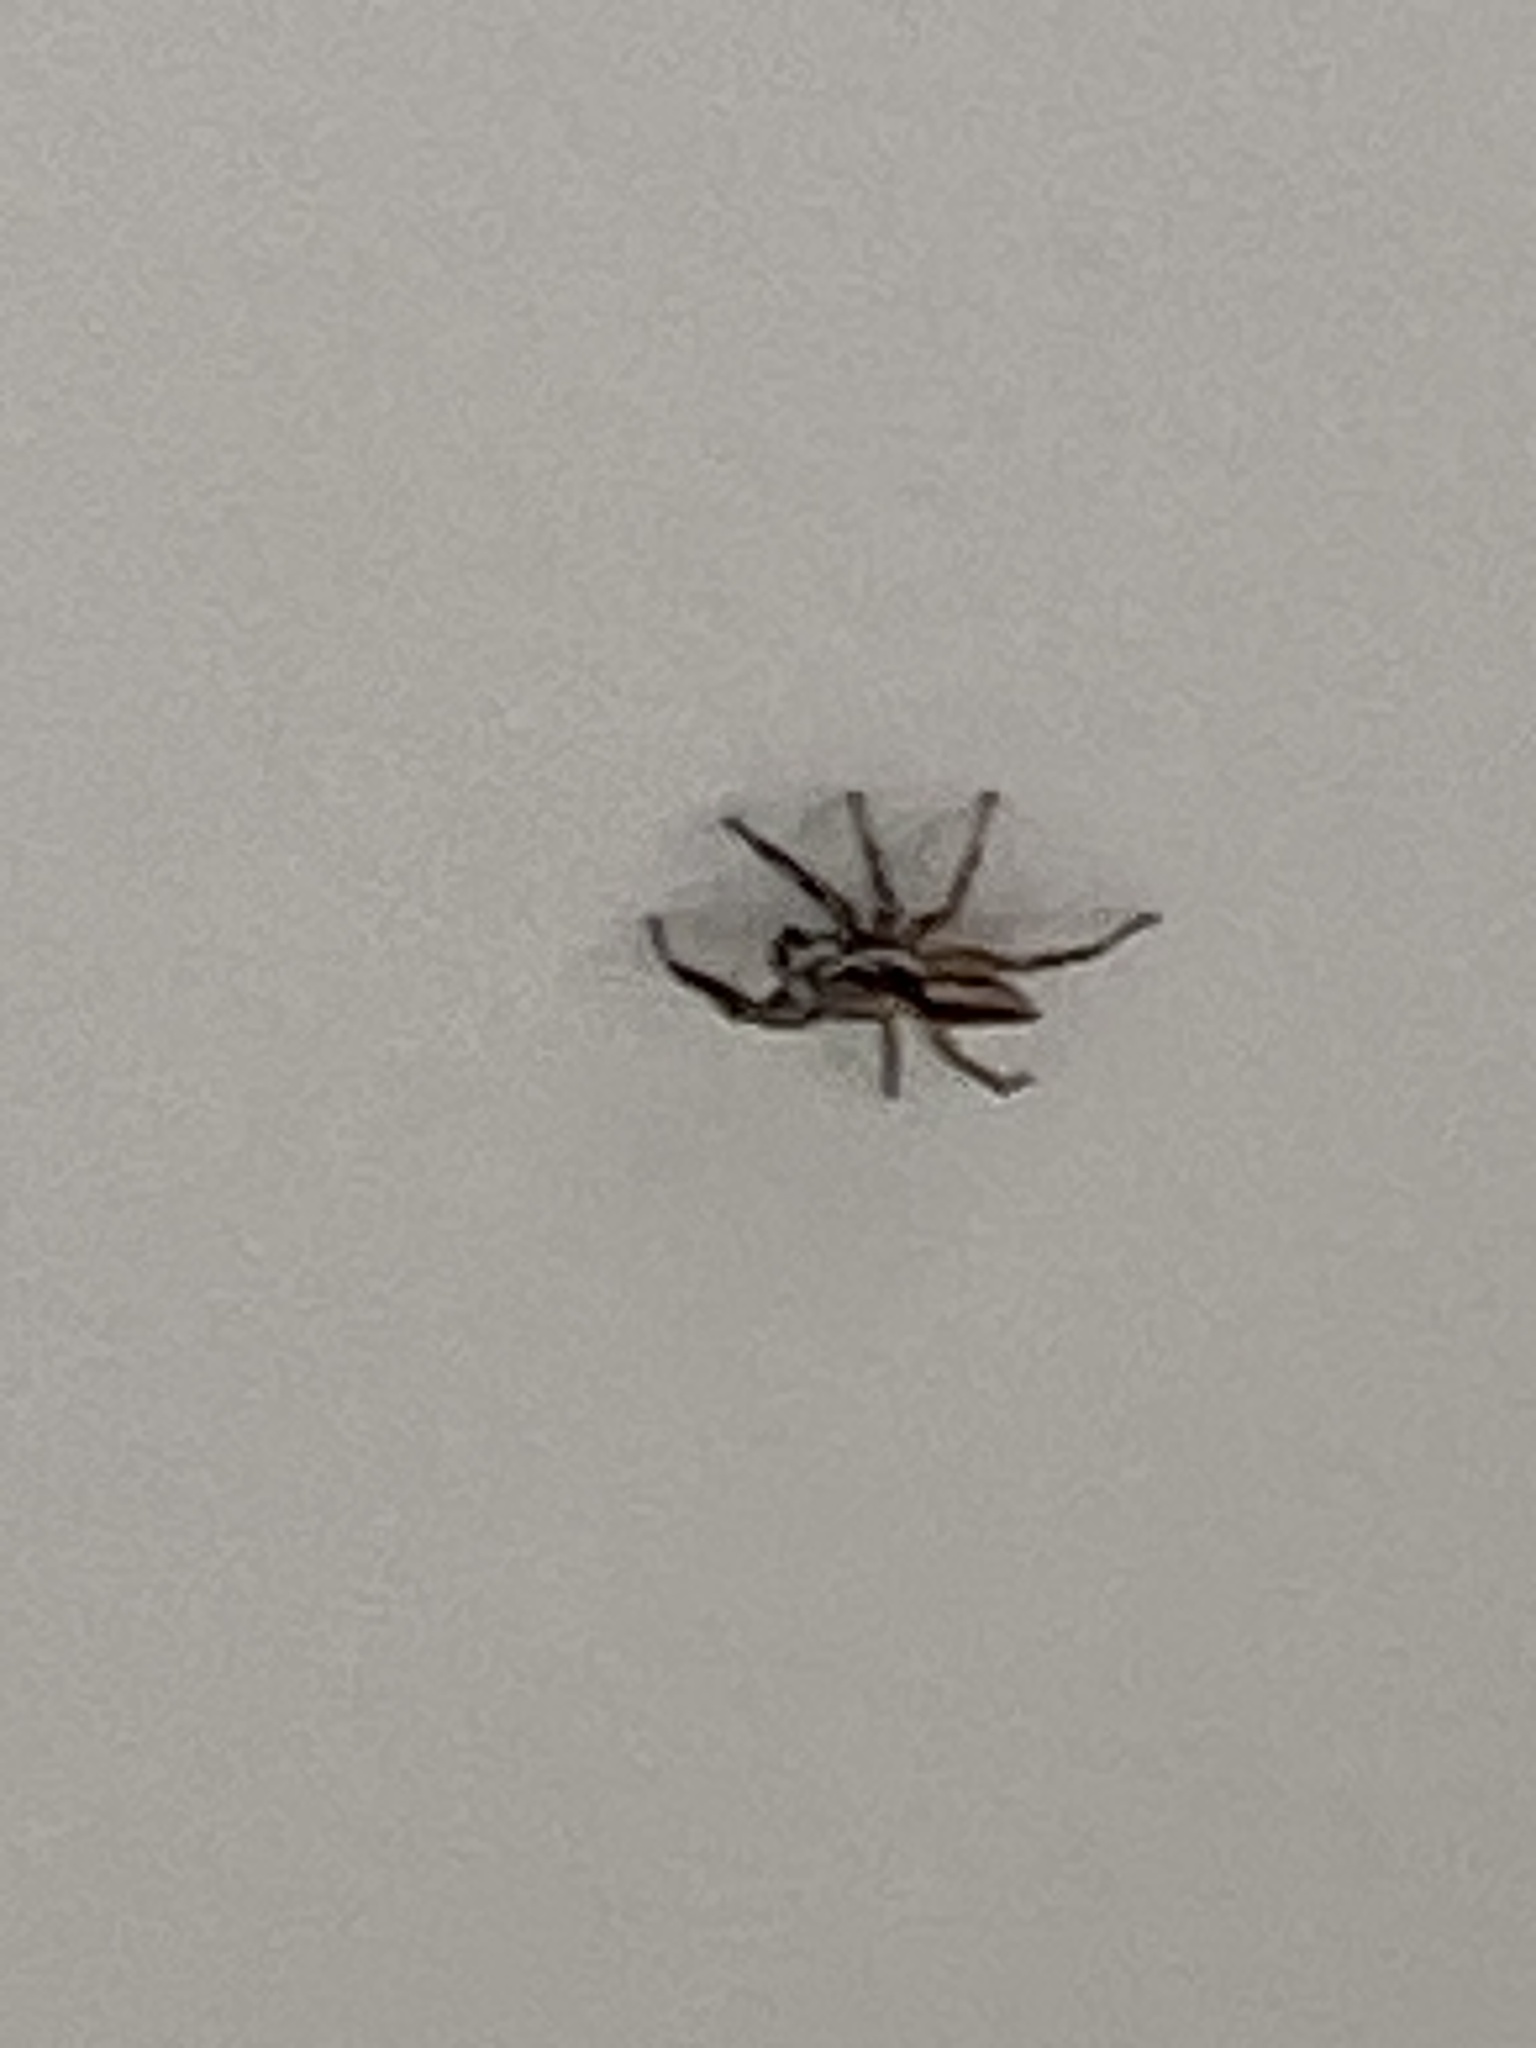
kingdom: Animalia
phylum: Arthropoda
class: Arachnida
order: Araneae
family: Salticidae
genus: Menemerus
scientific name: Menemerus bivittatus
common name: Gray wall jumper
